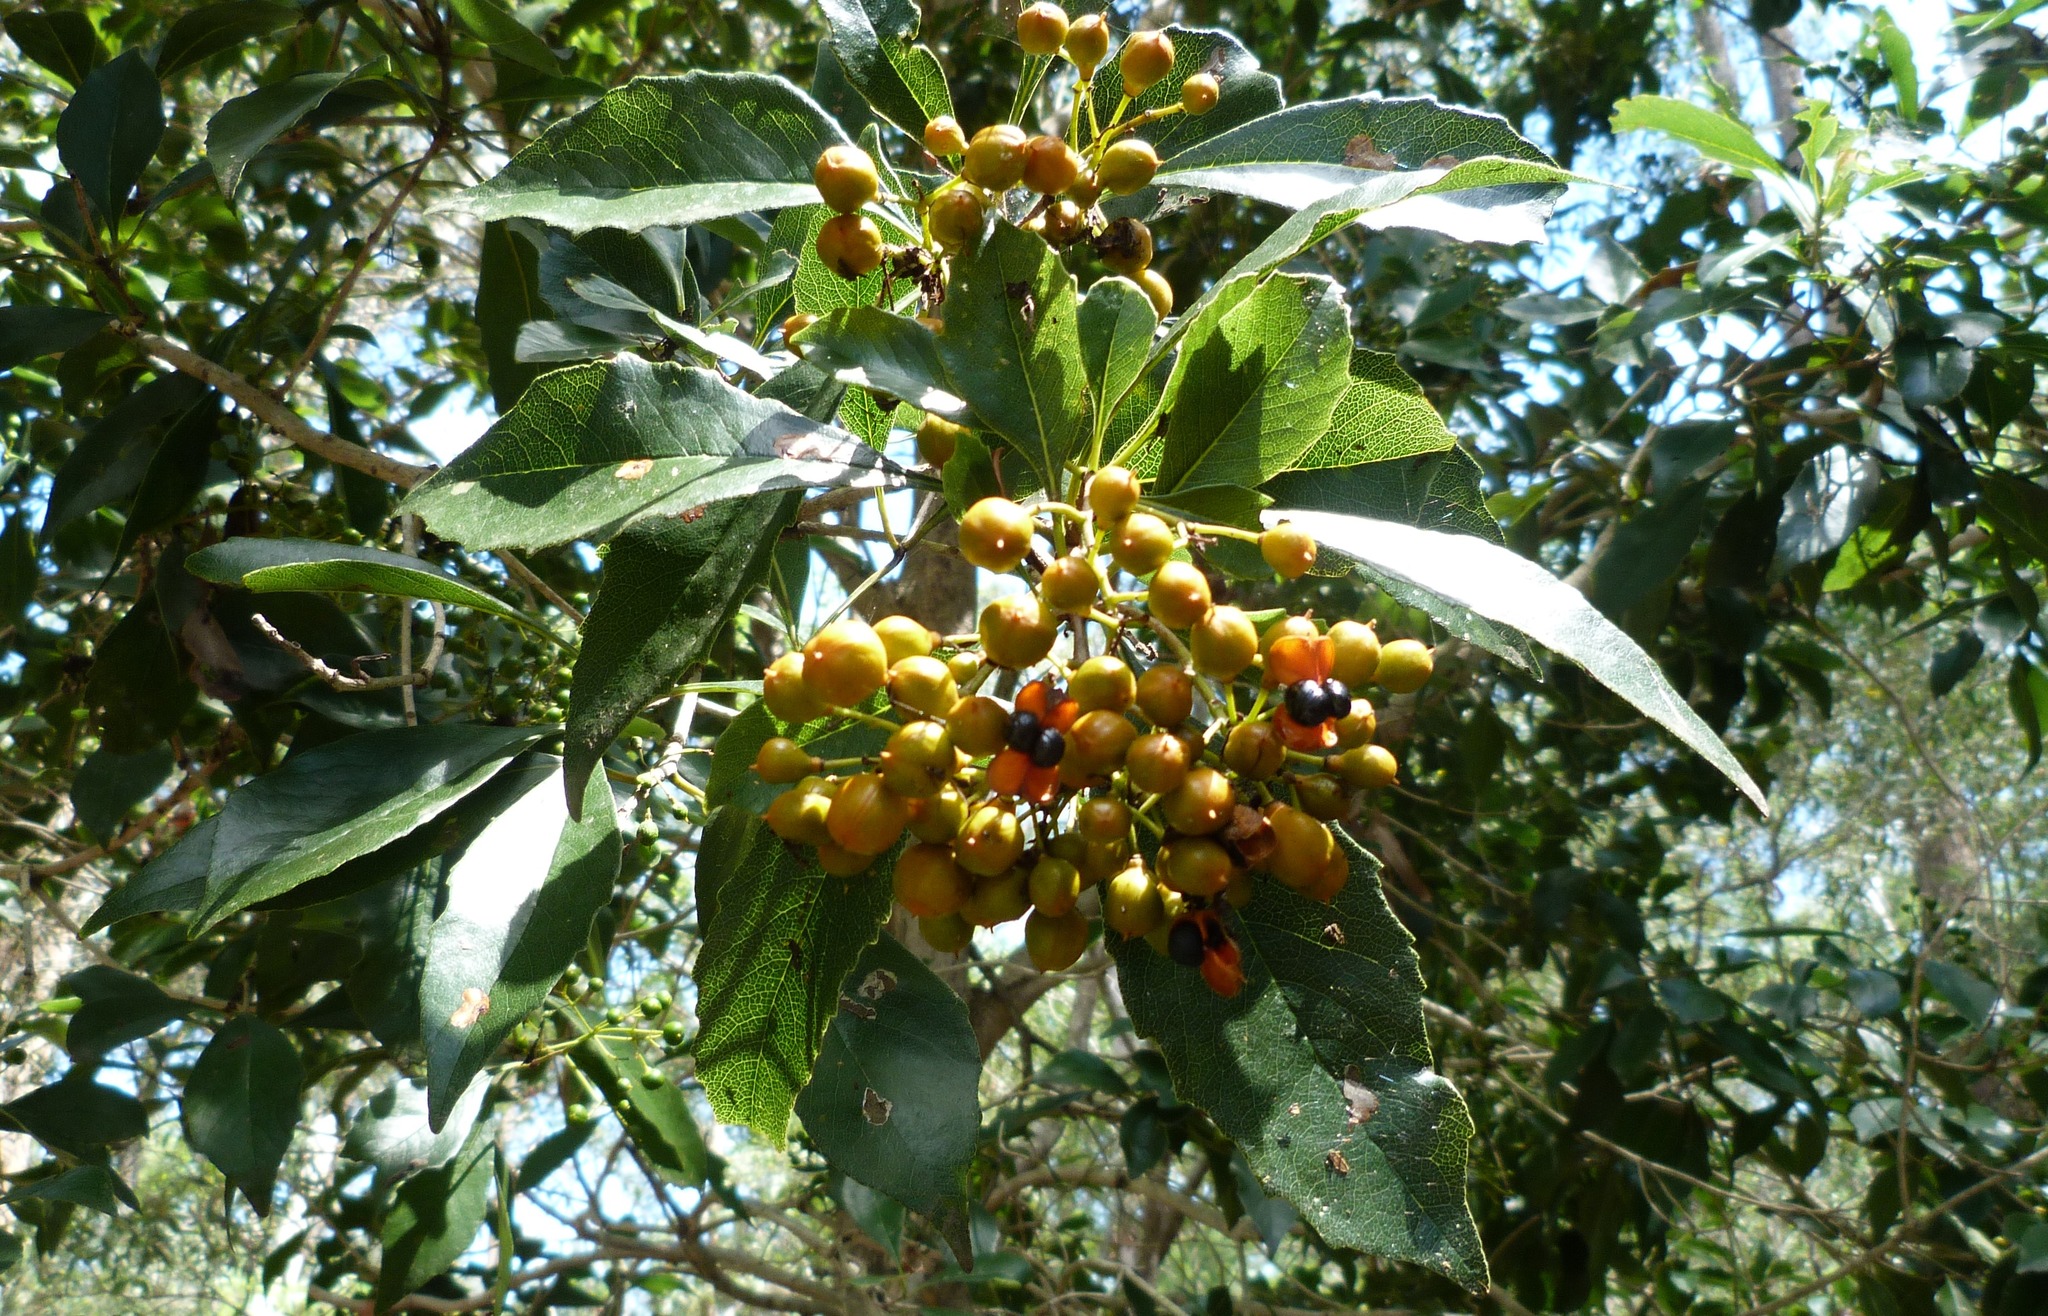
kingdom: Plantae
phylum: Tracheophyta
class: Magnoliopsida
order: Apiales
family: Pittosporaceae
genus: Auranticarpa
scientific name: Auranticarpa rhombifolia
